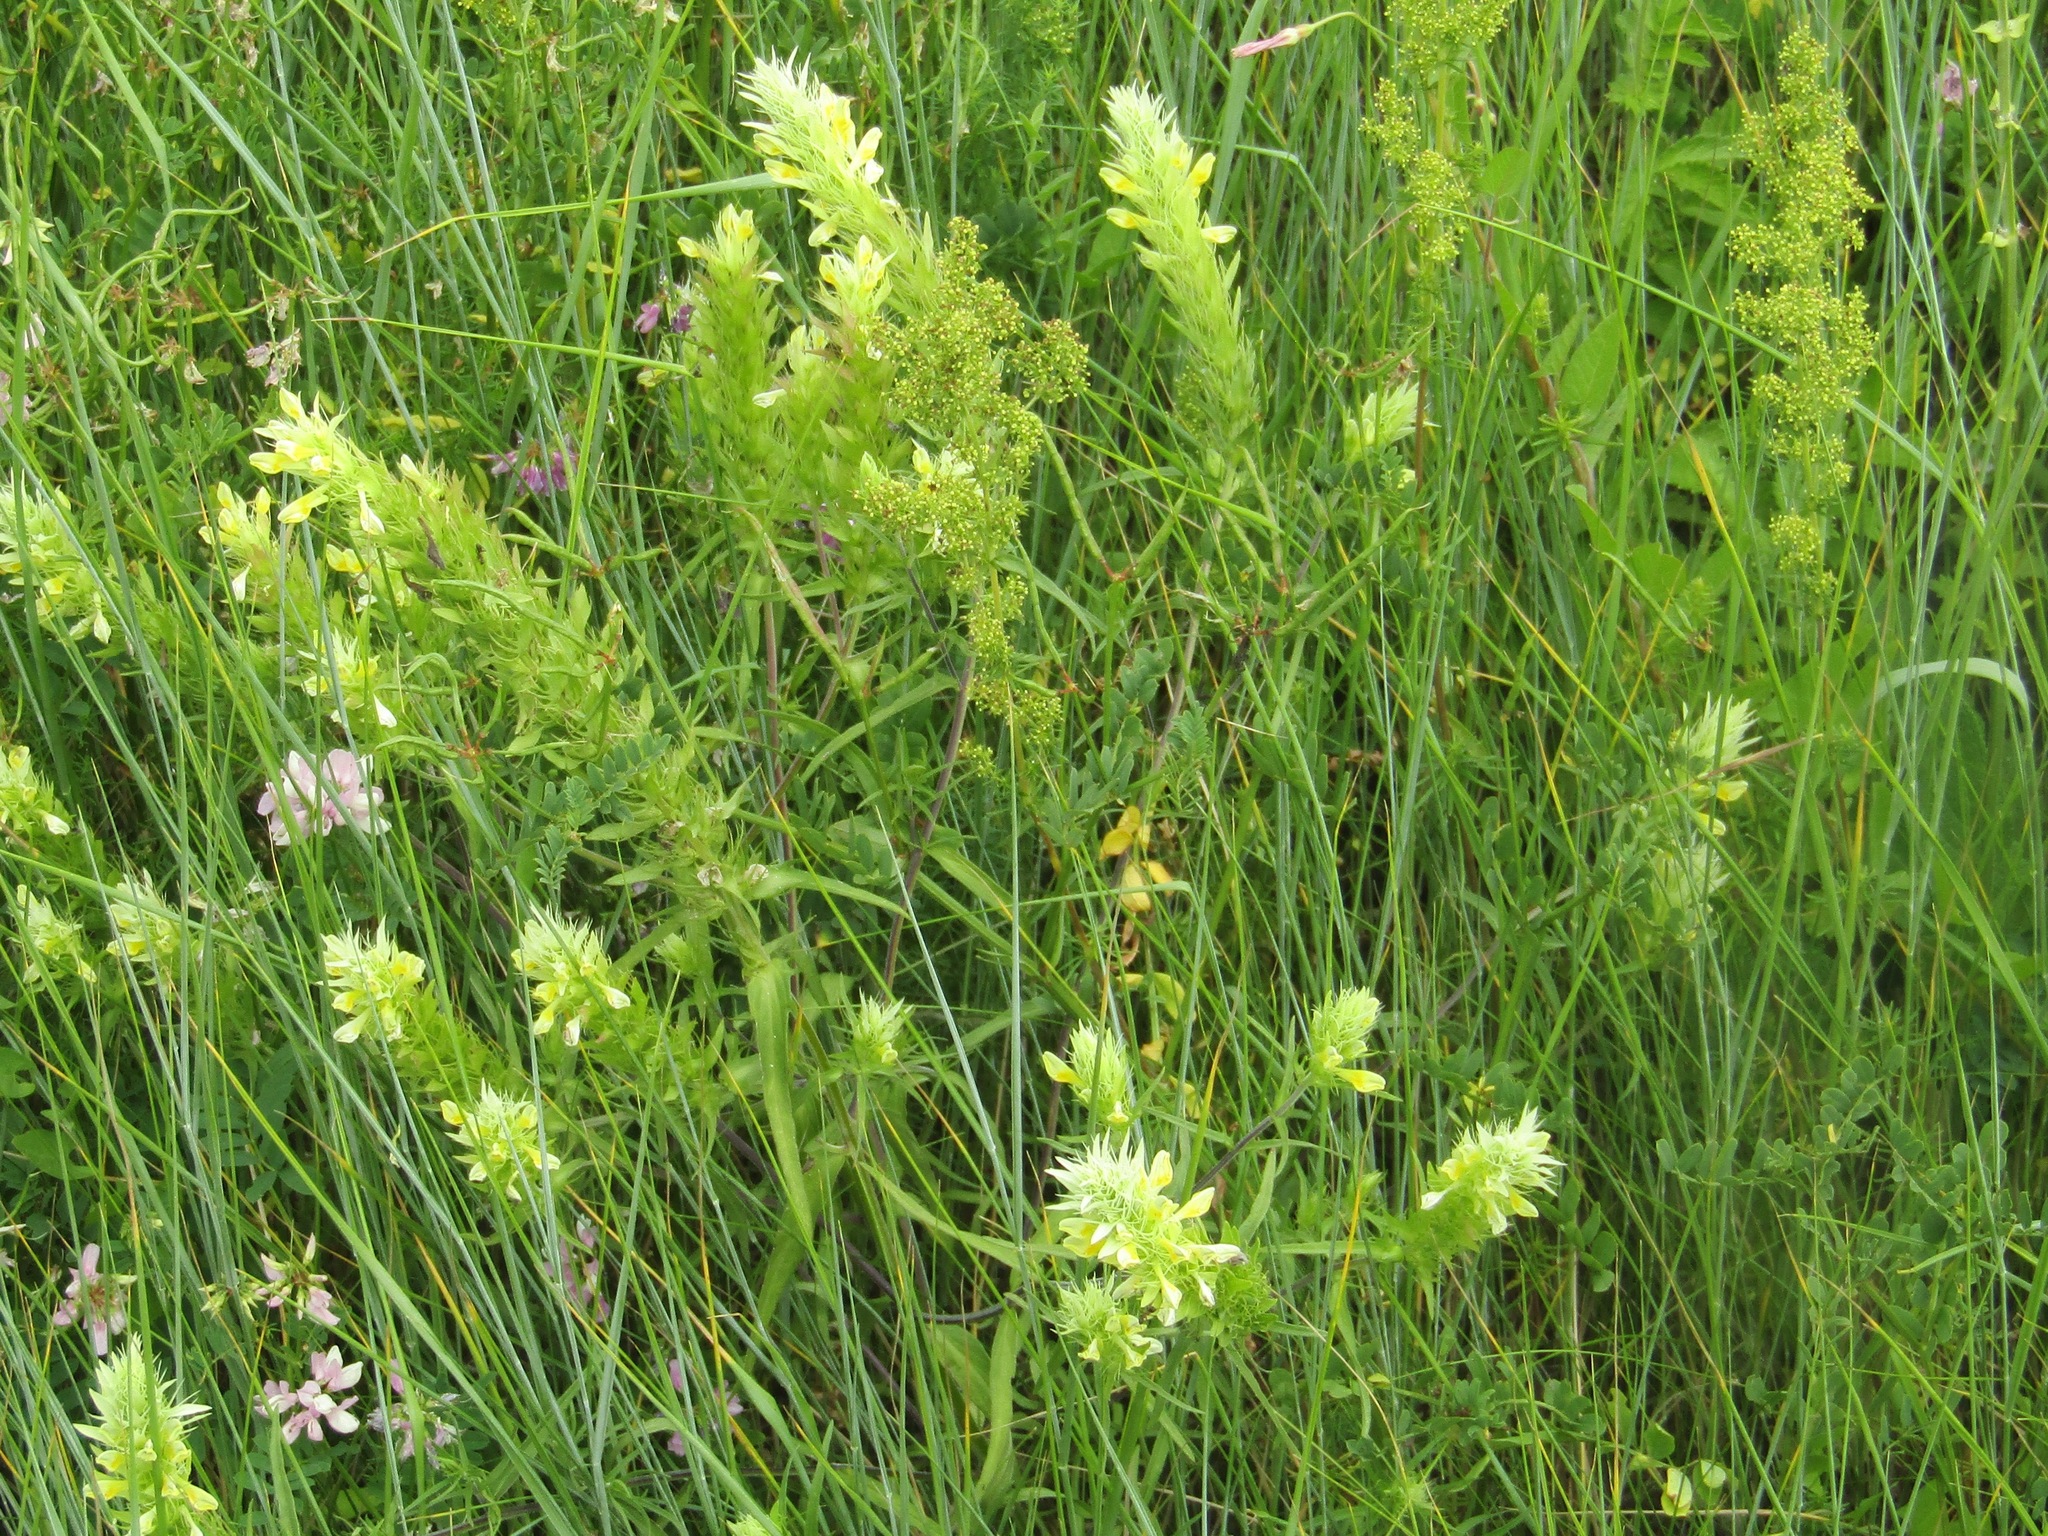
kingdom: Plantae
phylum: Tracheophyta
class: Magnoliopsida
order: Lamiales
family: Orobanchaceae
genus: Melampyrum
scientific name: Melampyrum arvense
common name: Field cow-wheat
